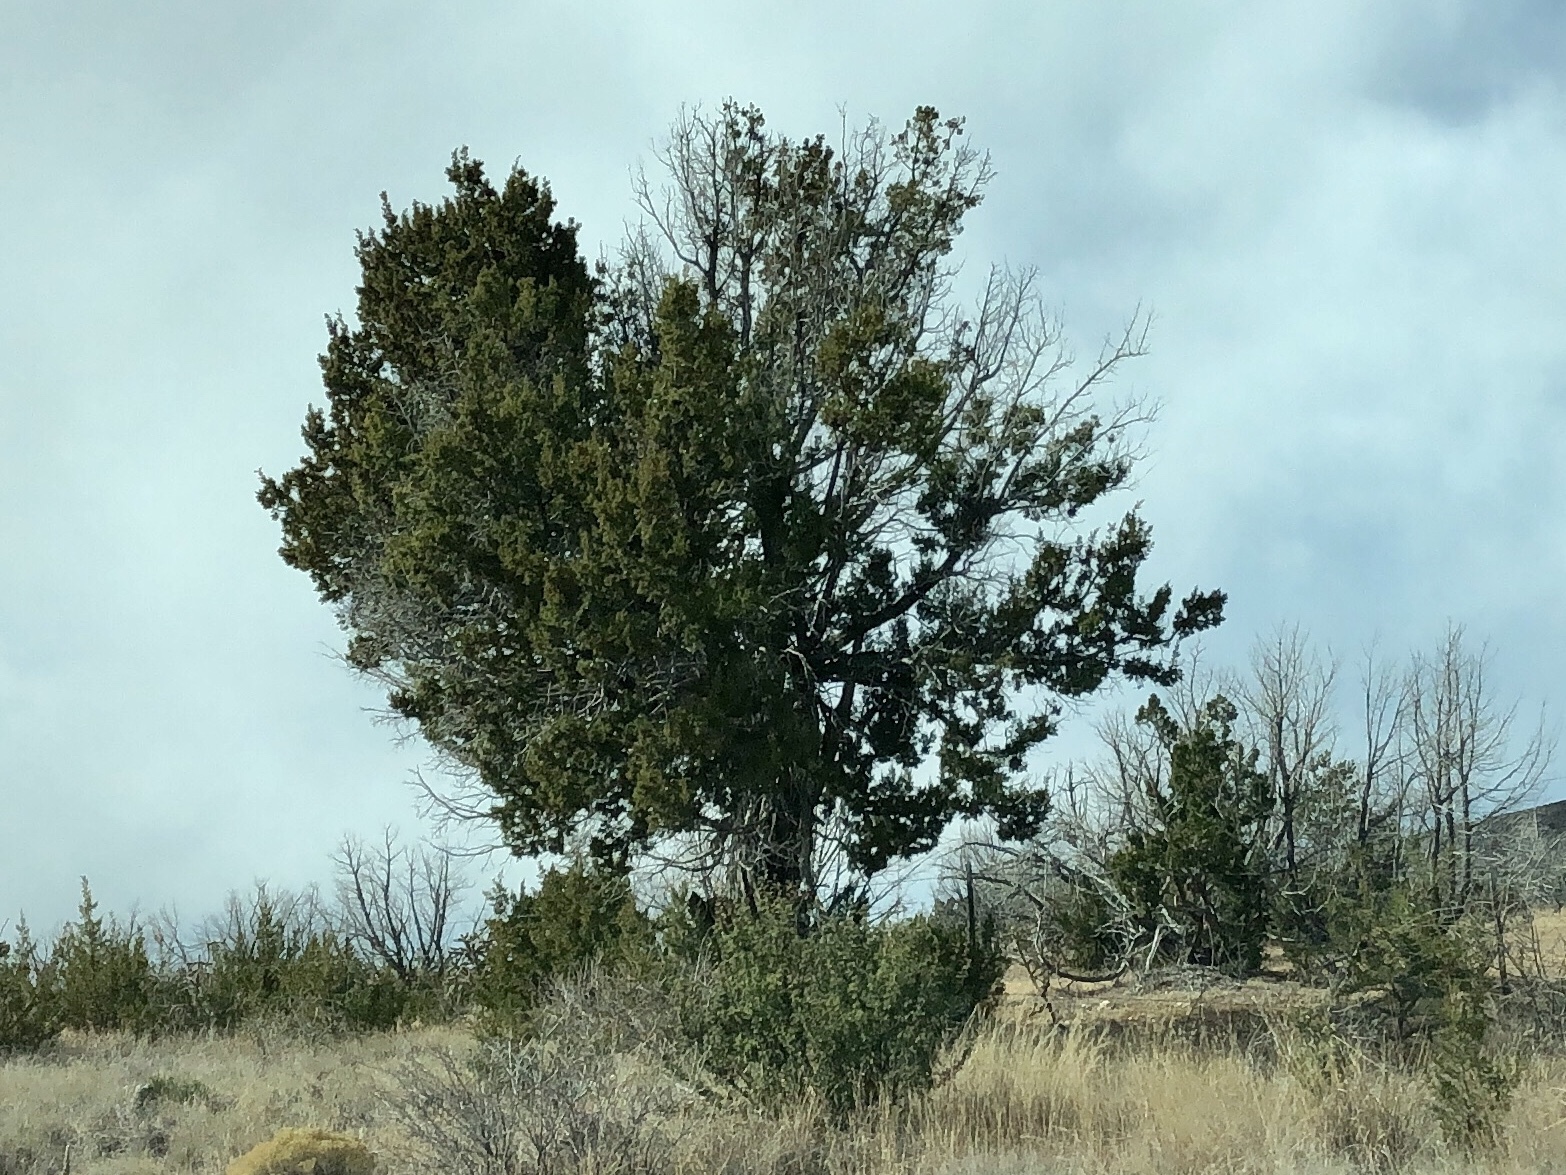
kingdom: Plantae
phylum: Tracheophyta
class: Pinopsida
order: Pinales
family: Cupressaceae
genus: Juniperus
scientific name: Juniperus monosperma
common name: One-seed juniper
